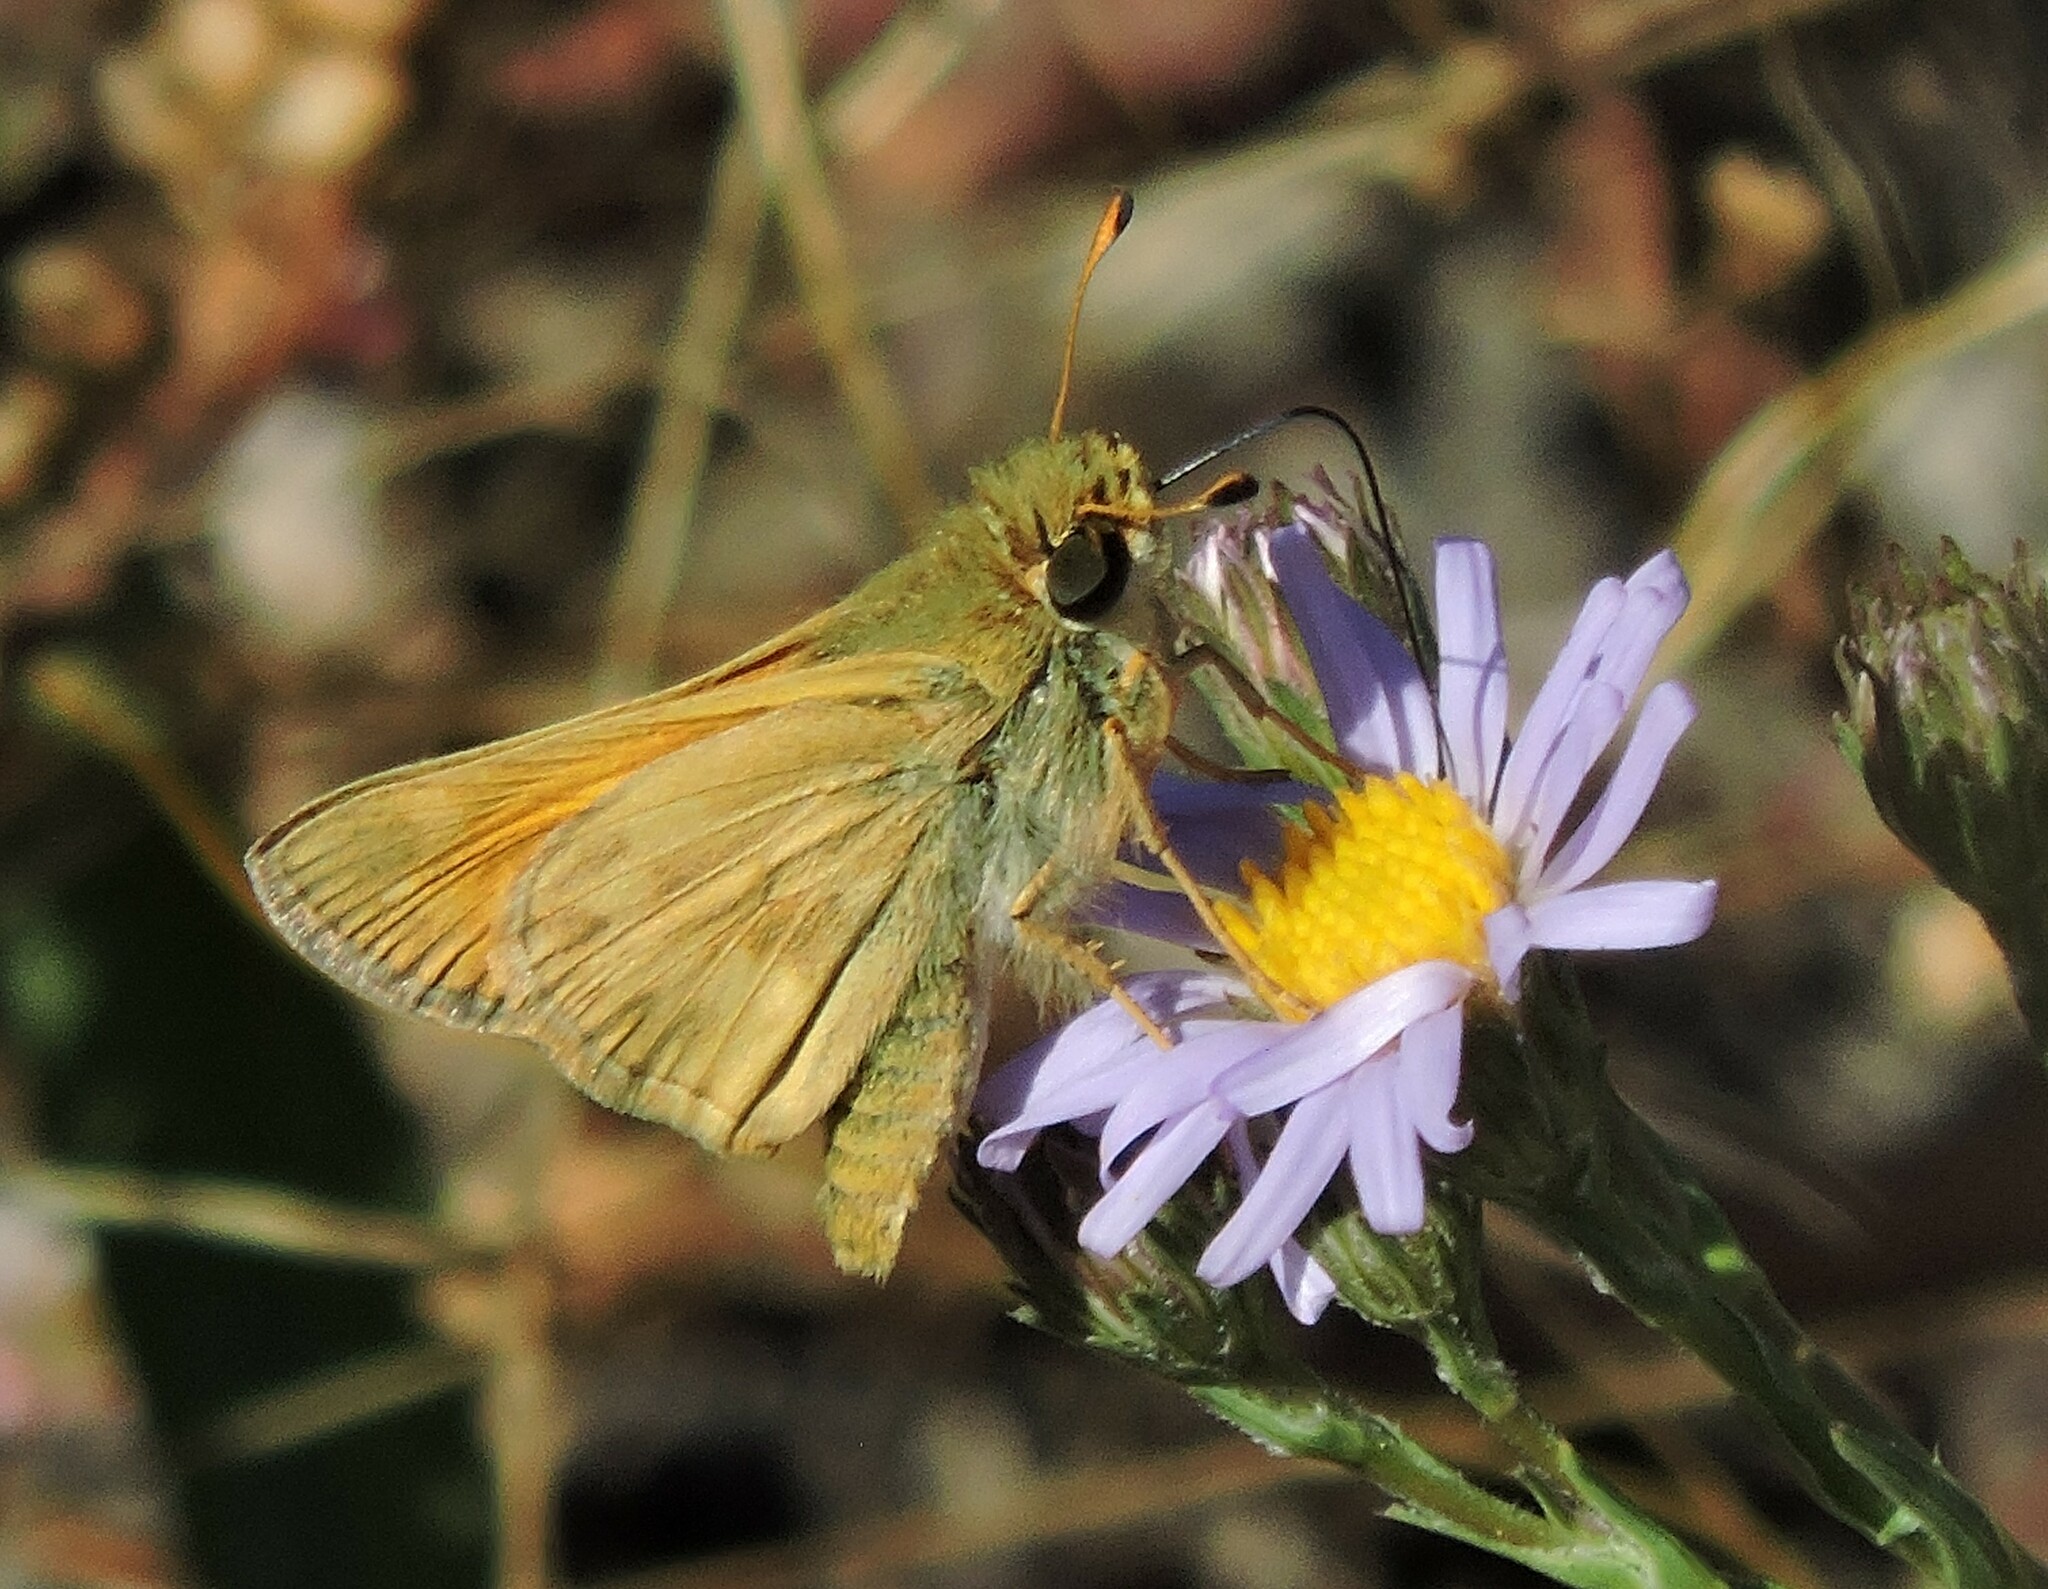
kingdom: Animalia
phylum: Arthropoda
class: Insecta
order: Lepidoptera
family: Hesperiidae
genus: Atalopedes
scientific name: Atalopedes campestris
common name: Sachem
